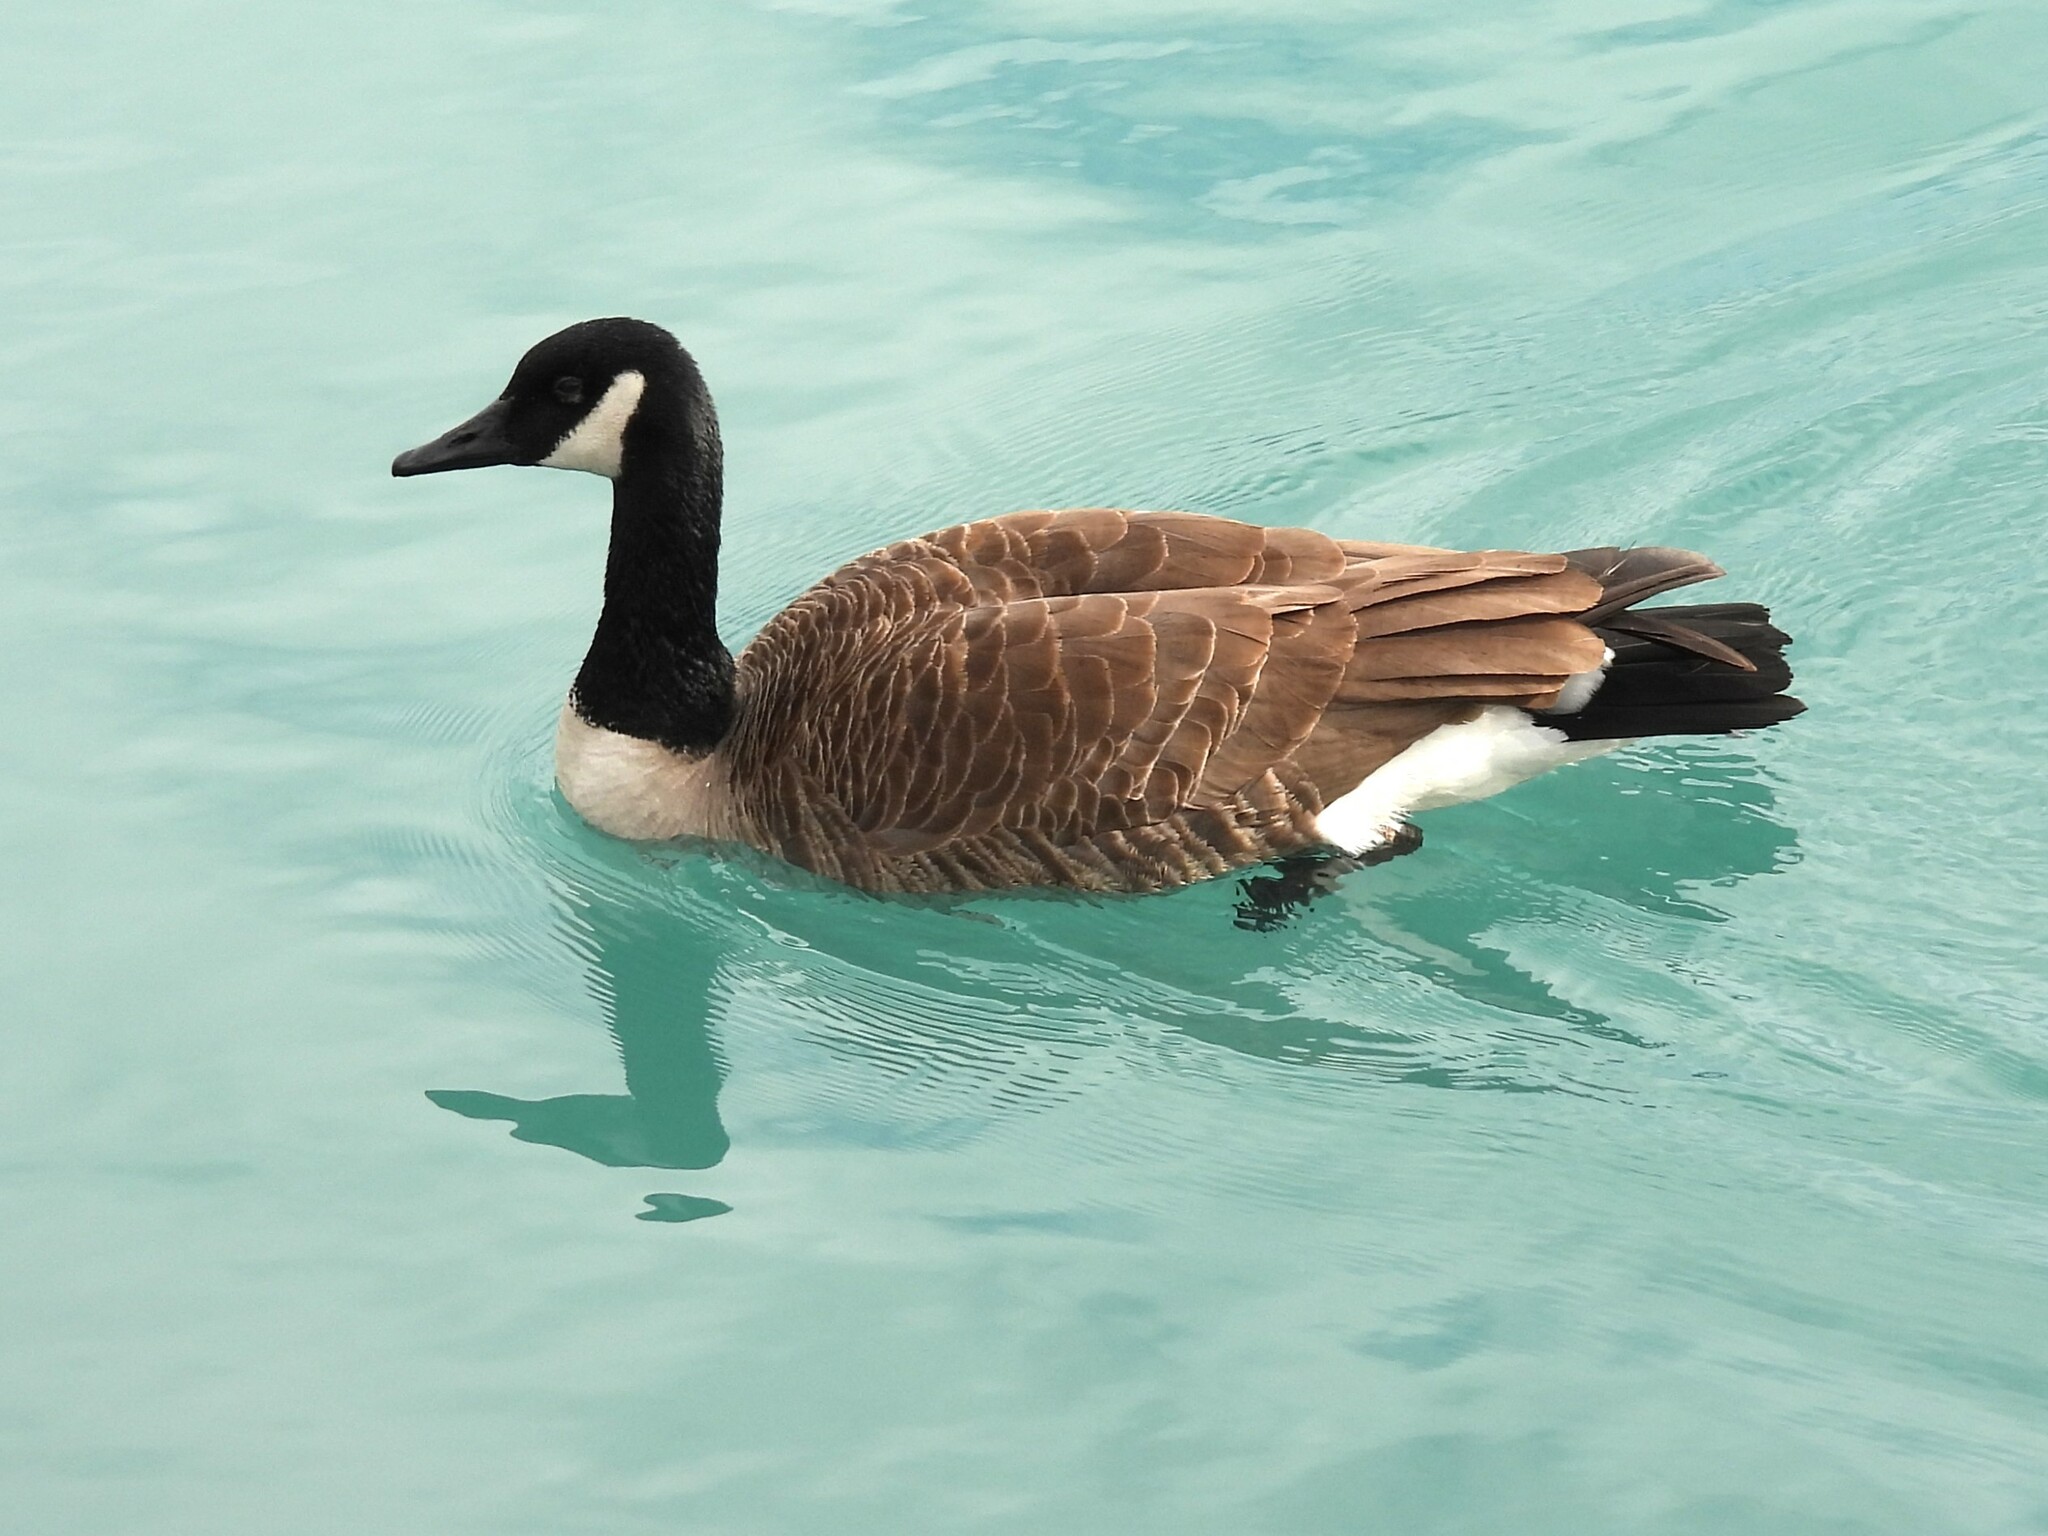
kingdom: Animalia
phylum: Chordata
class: Aves
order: Anseriformes
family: Anatidae
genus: Branta
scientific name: Branta canadensis
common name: Canada goose
